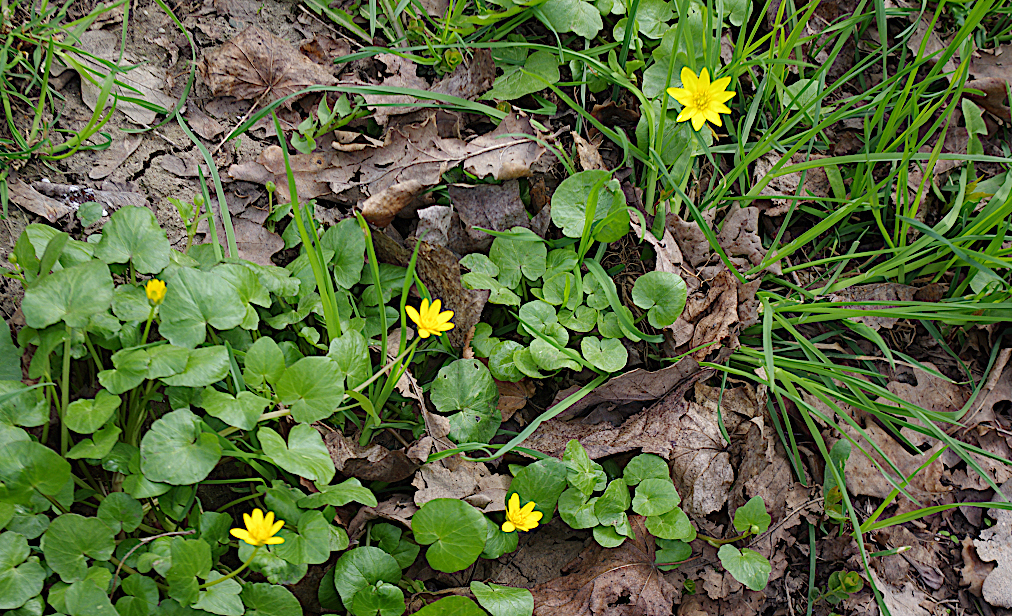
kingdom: Plantae
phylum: Tracheophyta
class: Magnoliopsida
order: Ranunculales
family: Ranunculaceae
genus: Ficaria
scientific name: Ficaria verna
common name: Lesser celandine
